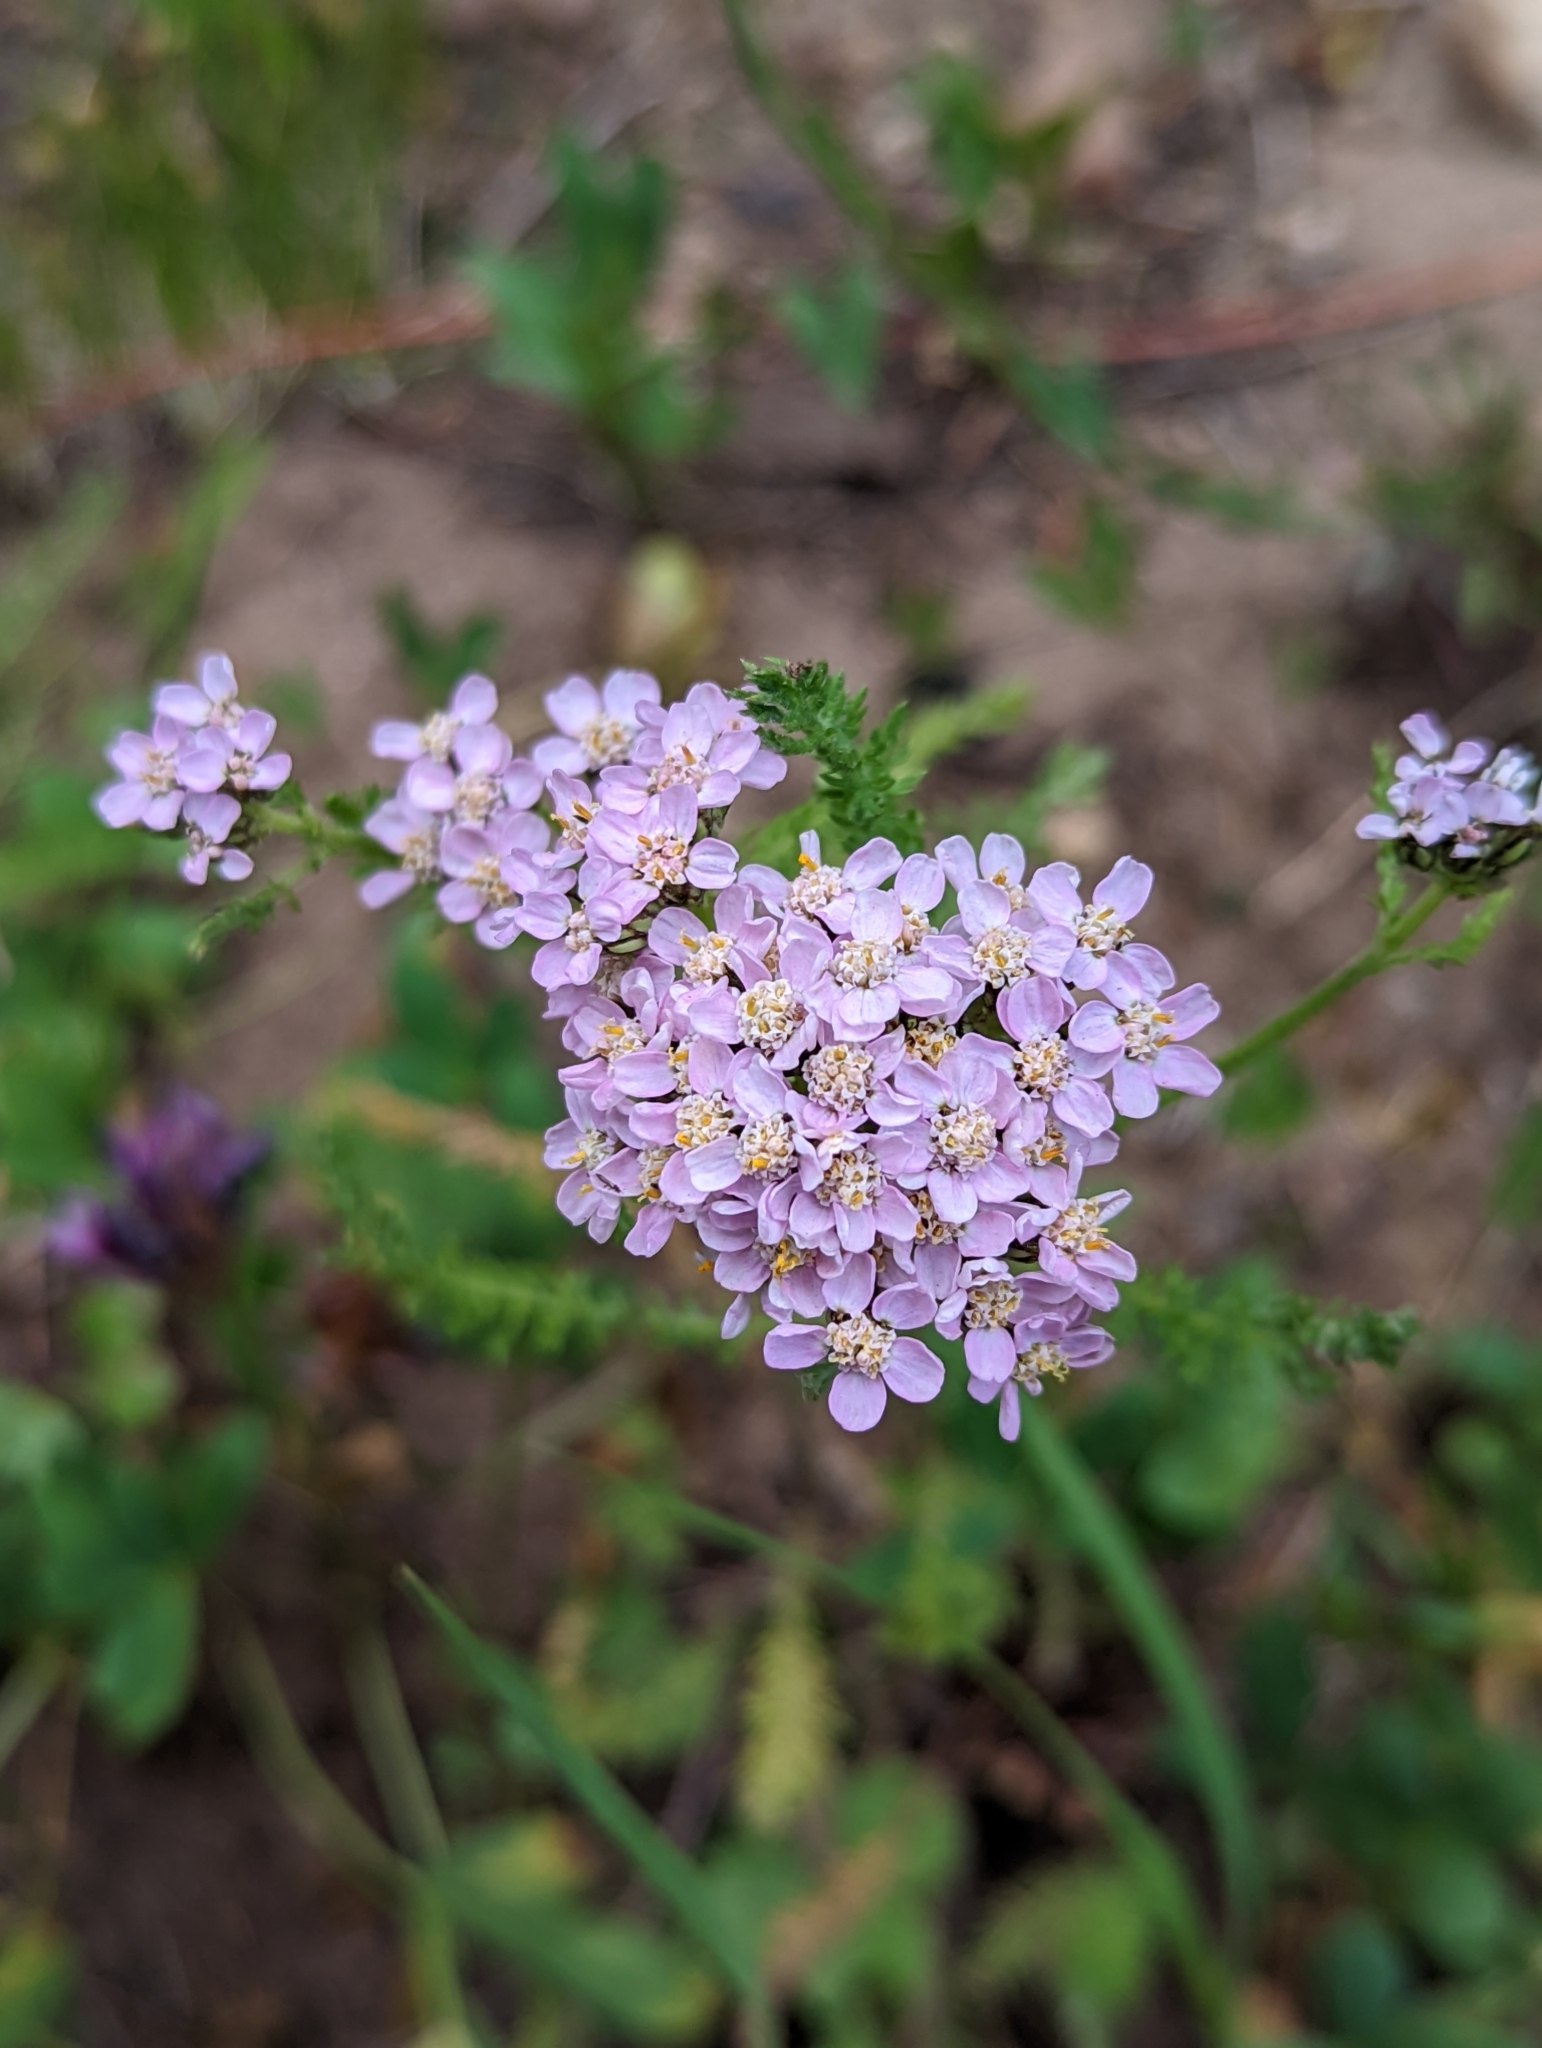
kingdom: Plantae
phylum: Tracheophyta
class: Magnoliopsida
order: Asterales
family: Asteraceae
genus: Achillea
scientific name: Achillea millefolium
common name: Yarrow
